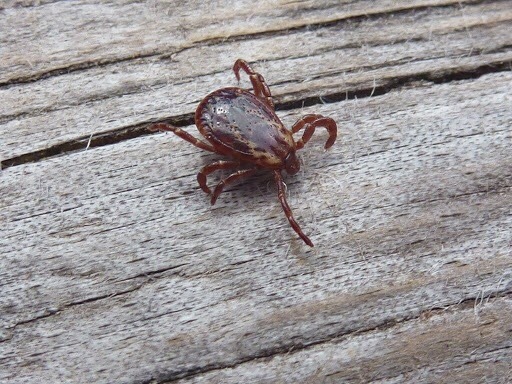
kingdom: Animalia
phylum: Arthropoda
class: Arachnida
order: Ixodida
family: Ixodidae
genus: Dermacentor
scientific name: Dermacentor variabilis
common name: American dog tick
